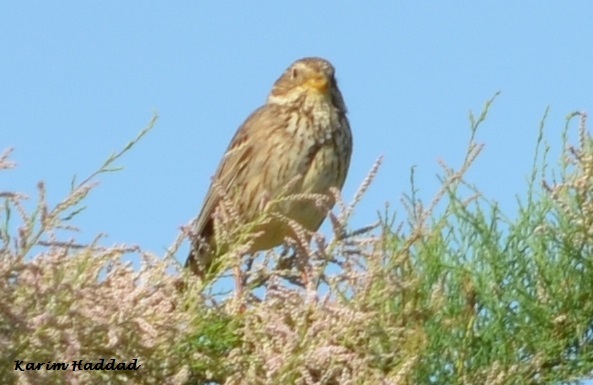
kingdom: Animalia
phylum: Chordata
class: Aves
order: Passeriformes
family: Emberizidae
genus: Emberiza
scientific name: Emberiza calandra
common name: Corn bunting
